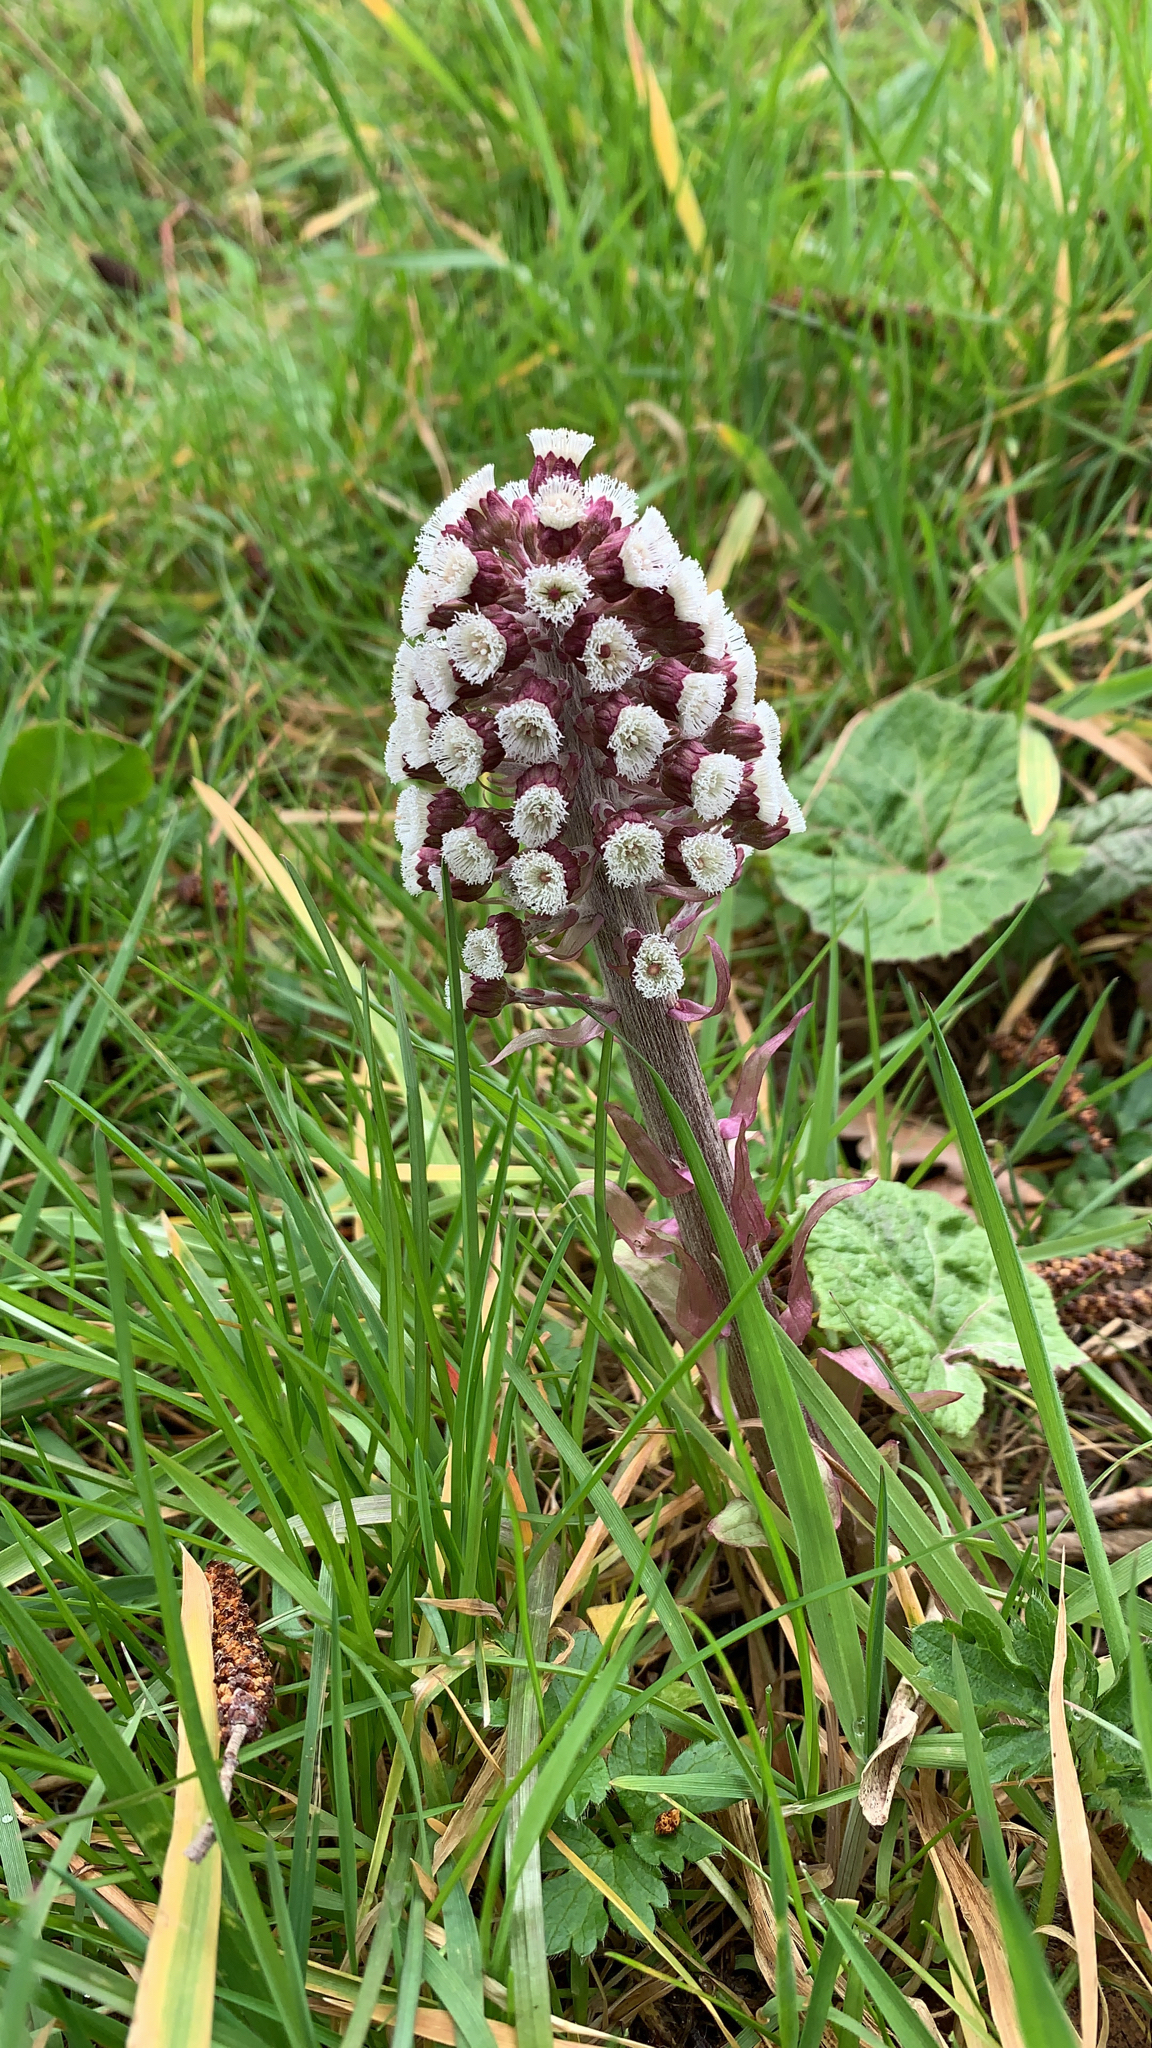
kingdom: Plantae
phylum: Tracheophyta
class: Magnoliopsida
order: Asterales
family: Asteraceae
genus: Petasites
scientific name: Petasites hybridus
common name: Butterbur
